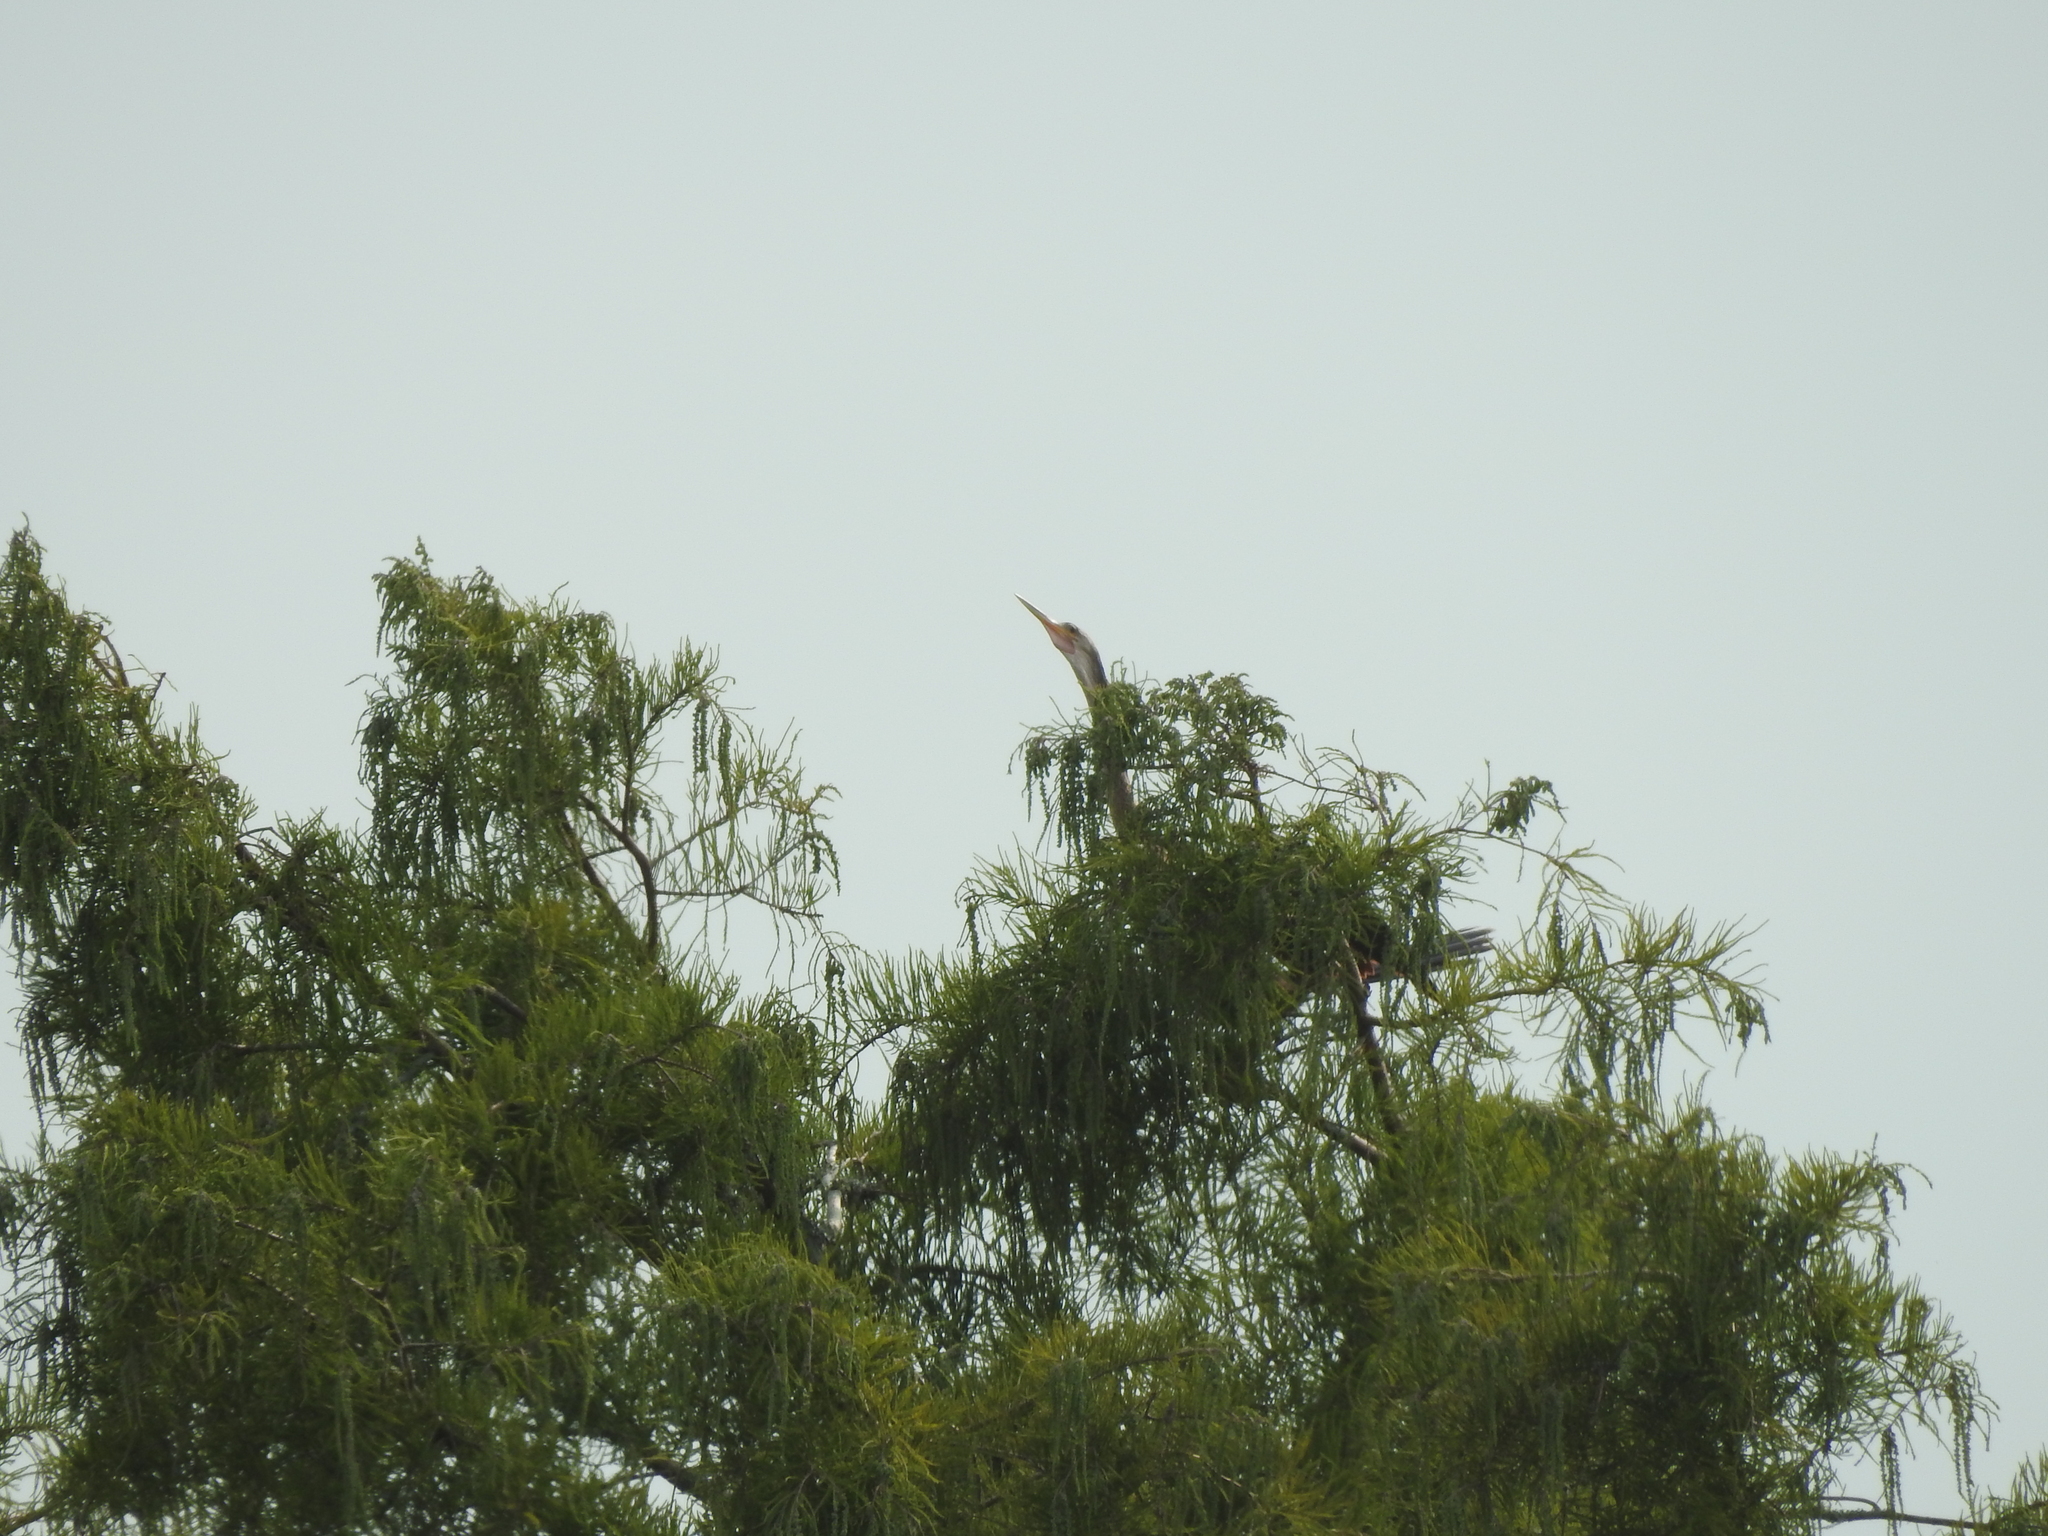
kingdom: Animalia
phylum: Chordata
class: Aves
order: Suliformes
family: Anhingidae
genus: Anhinga
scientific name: Anhinga anhinga
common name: Anhinga
